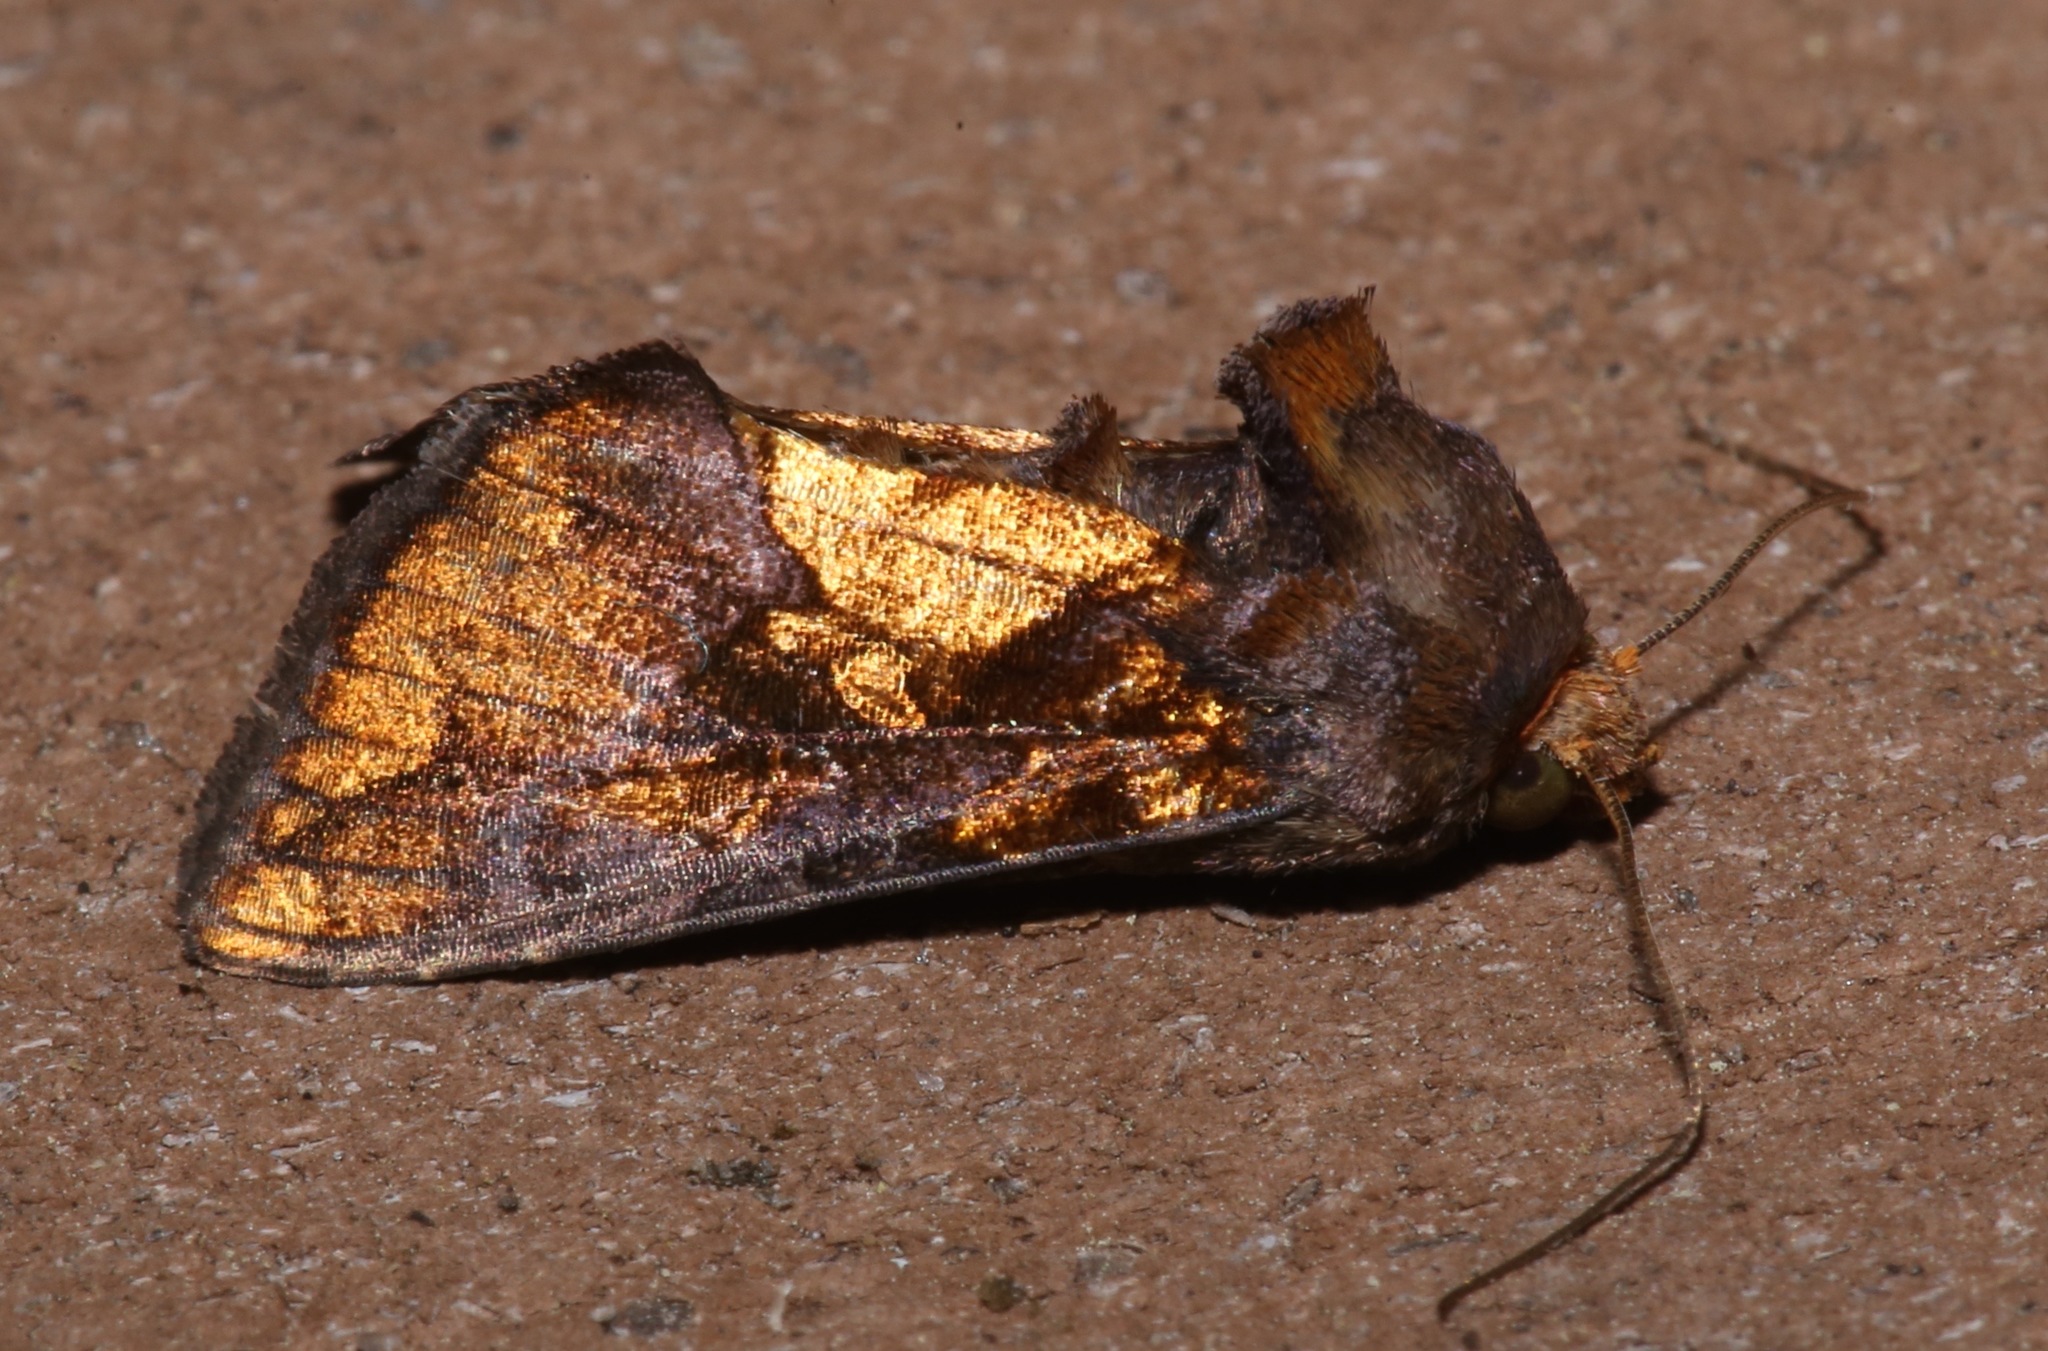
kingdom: Animalia
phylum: Arthropoda
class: Insecta
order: Lepidoptera
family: Noctuidae
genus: Argyrogramma
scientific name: Argyrogramma verruca
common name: Golden looper moth
